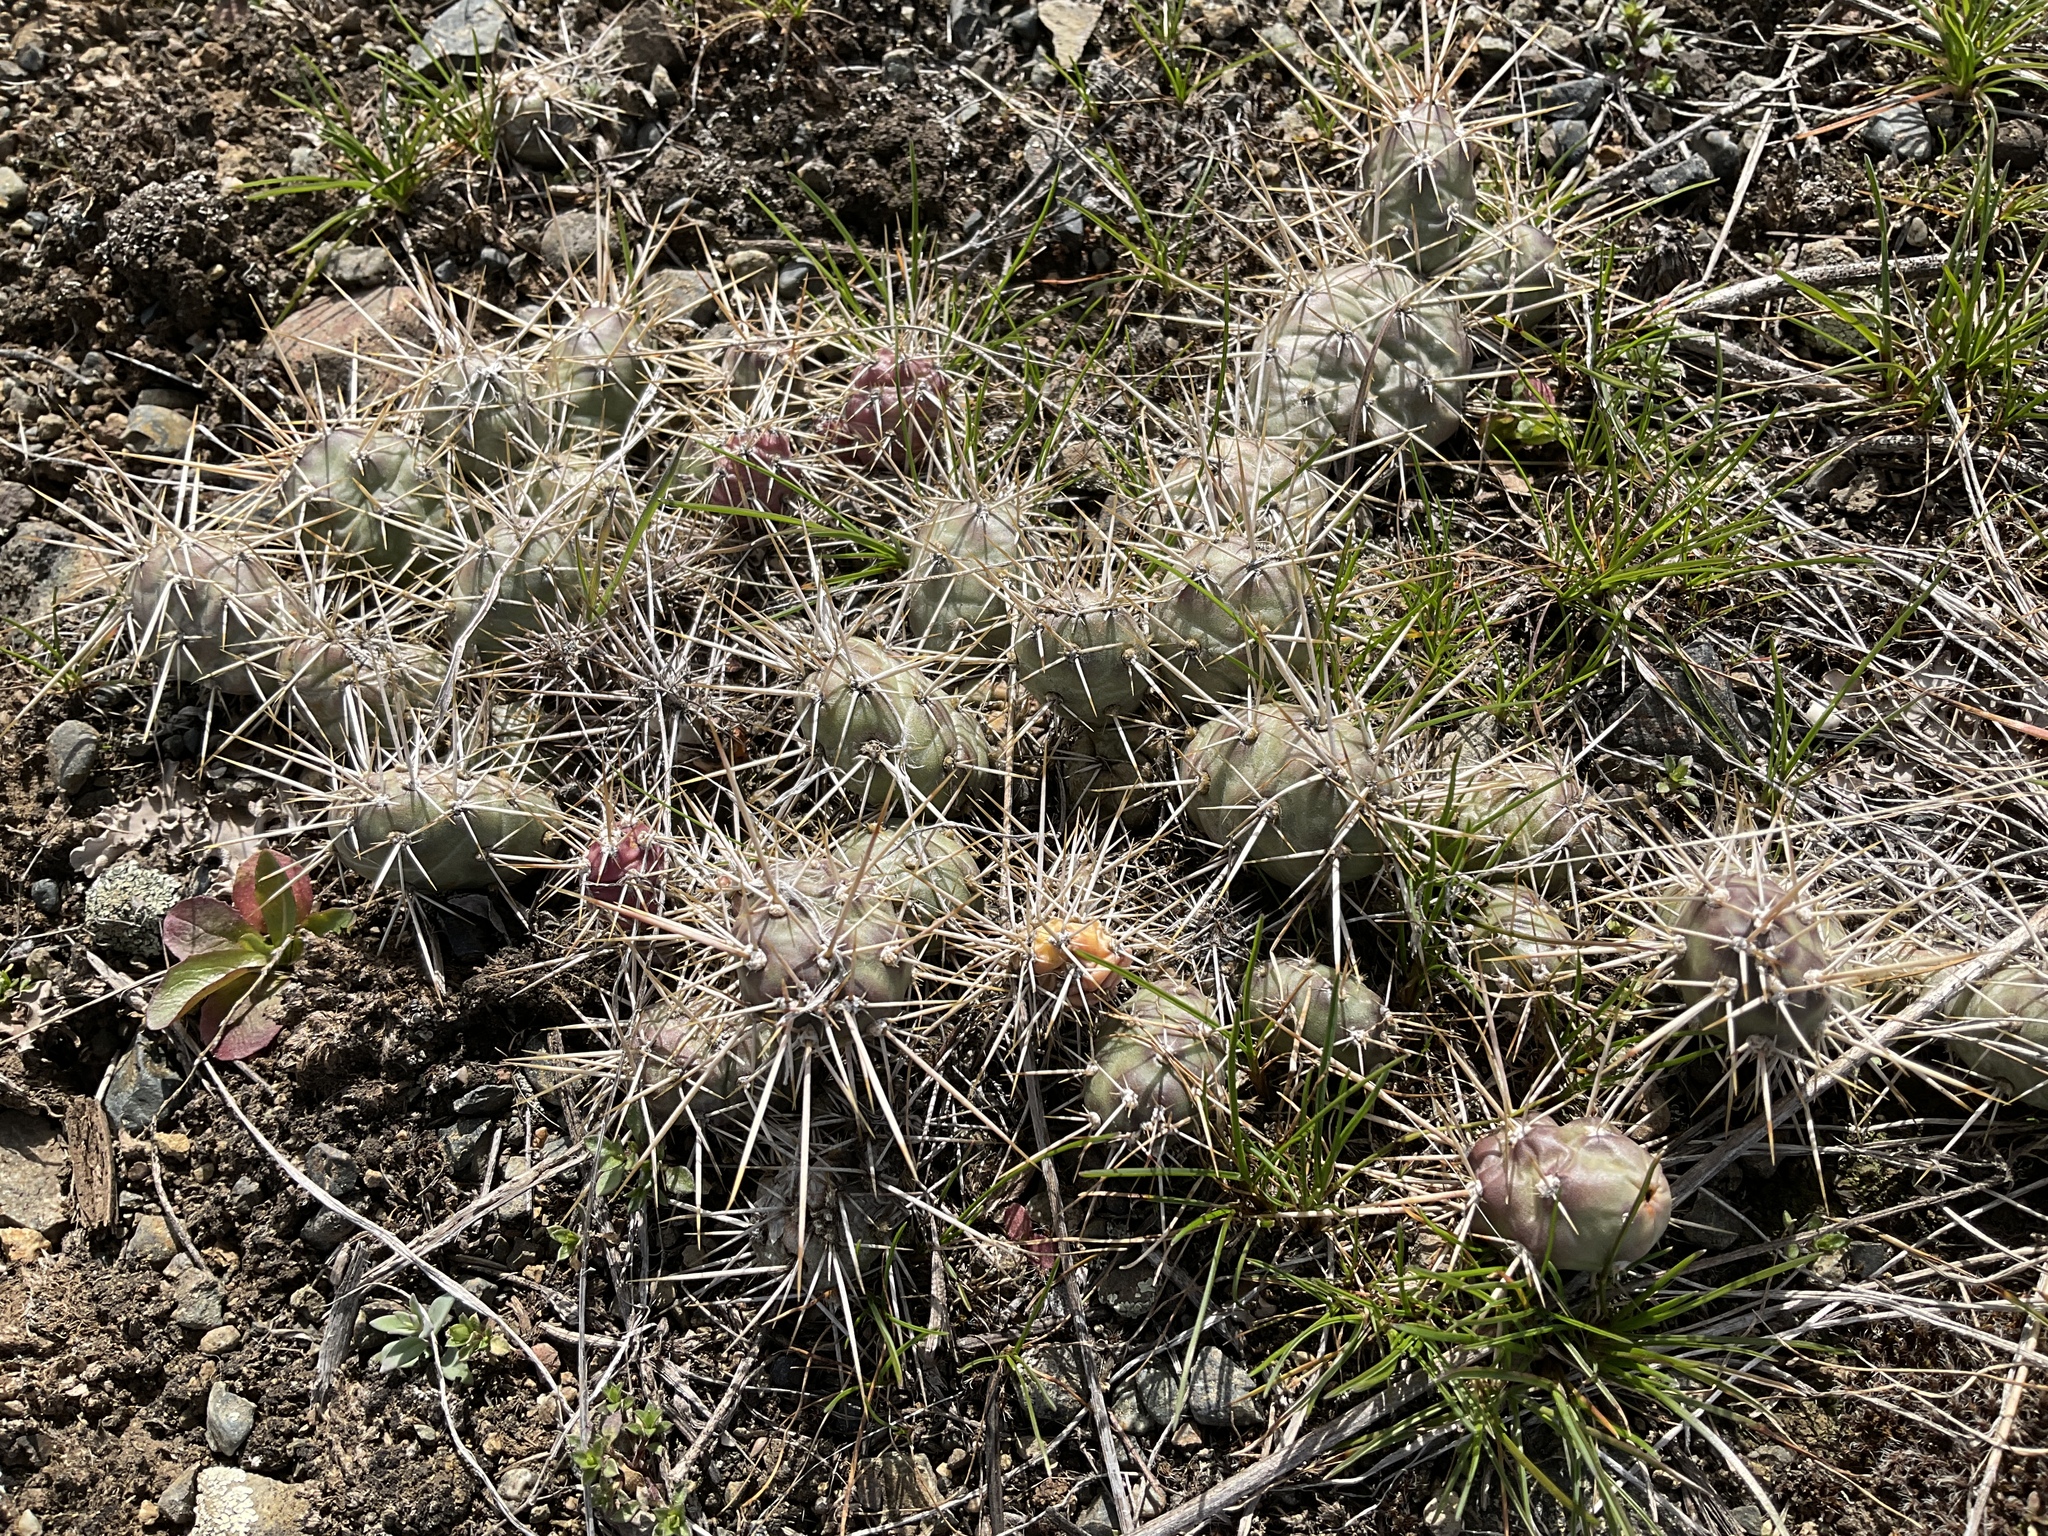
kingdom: Plantae
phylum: Tracheophyta
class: Magnoliopsida
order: Caryophyllales
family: Cactaceae
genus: Opuntia
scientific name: Opuntia fragilis
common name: Brittle cactus
